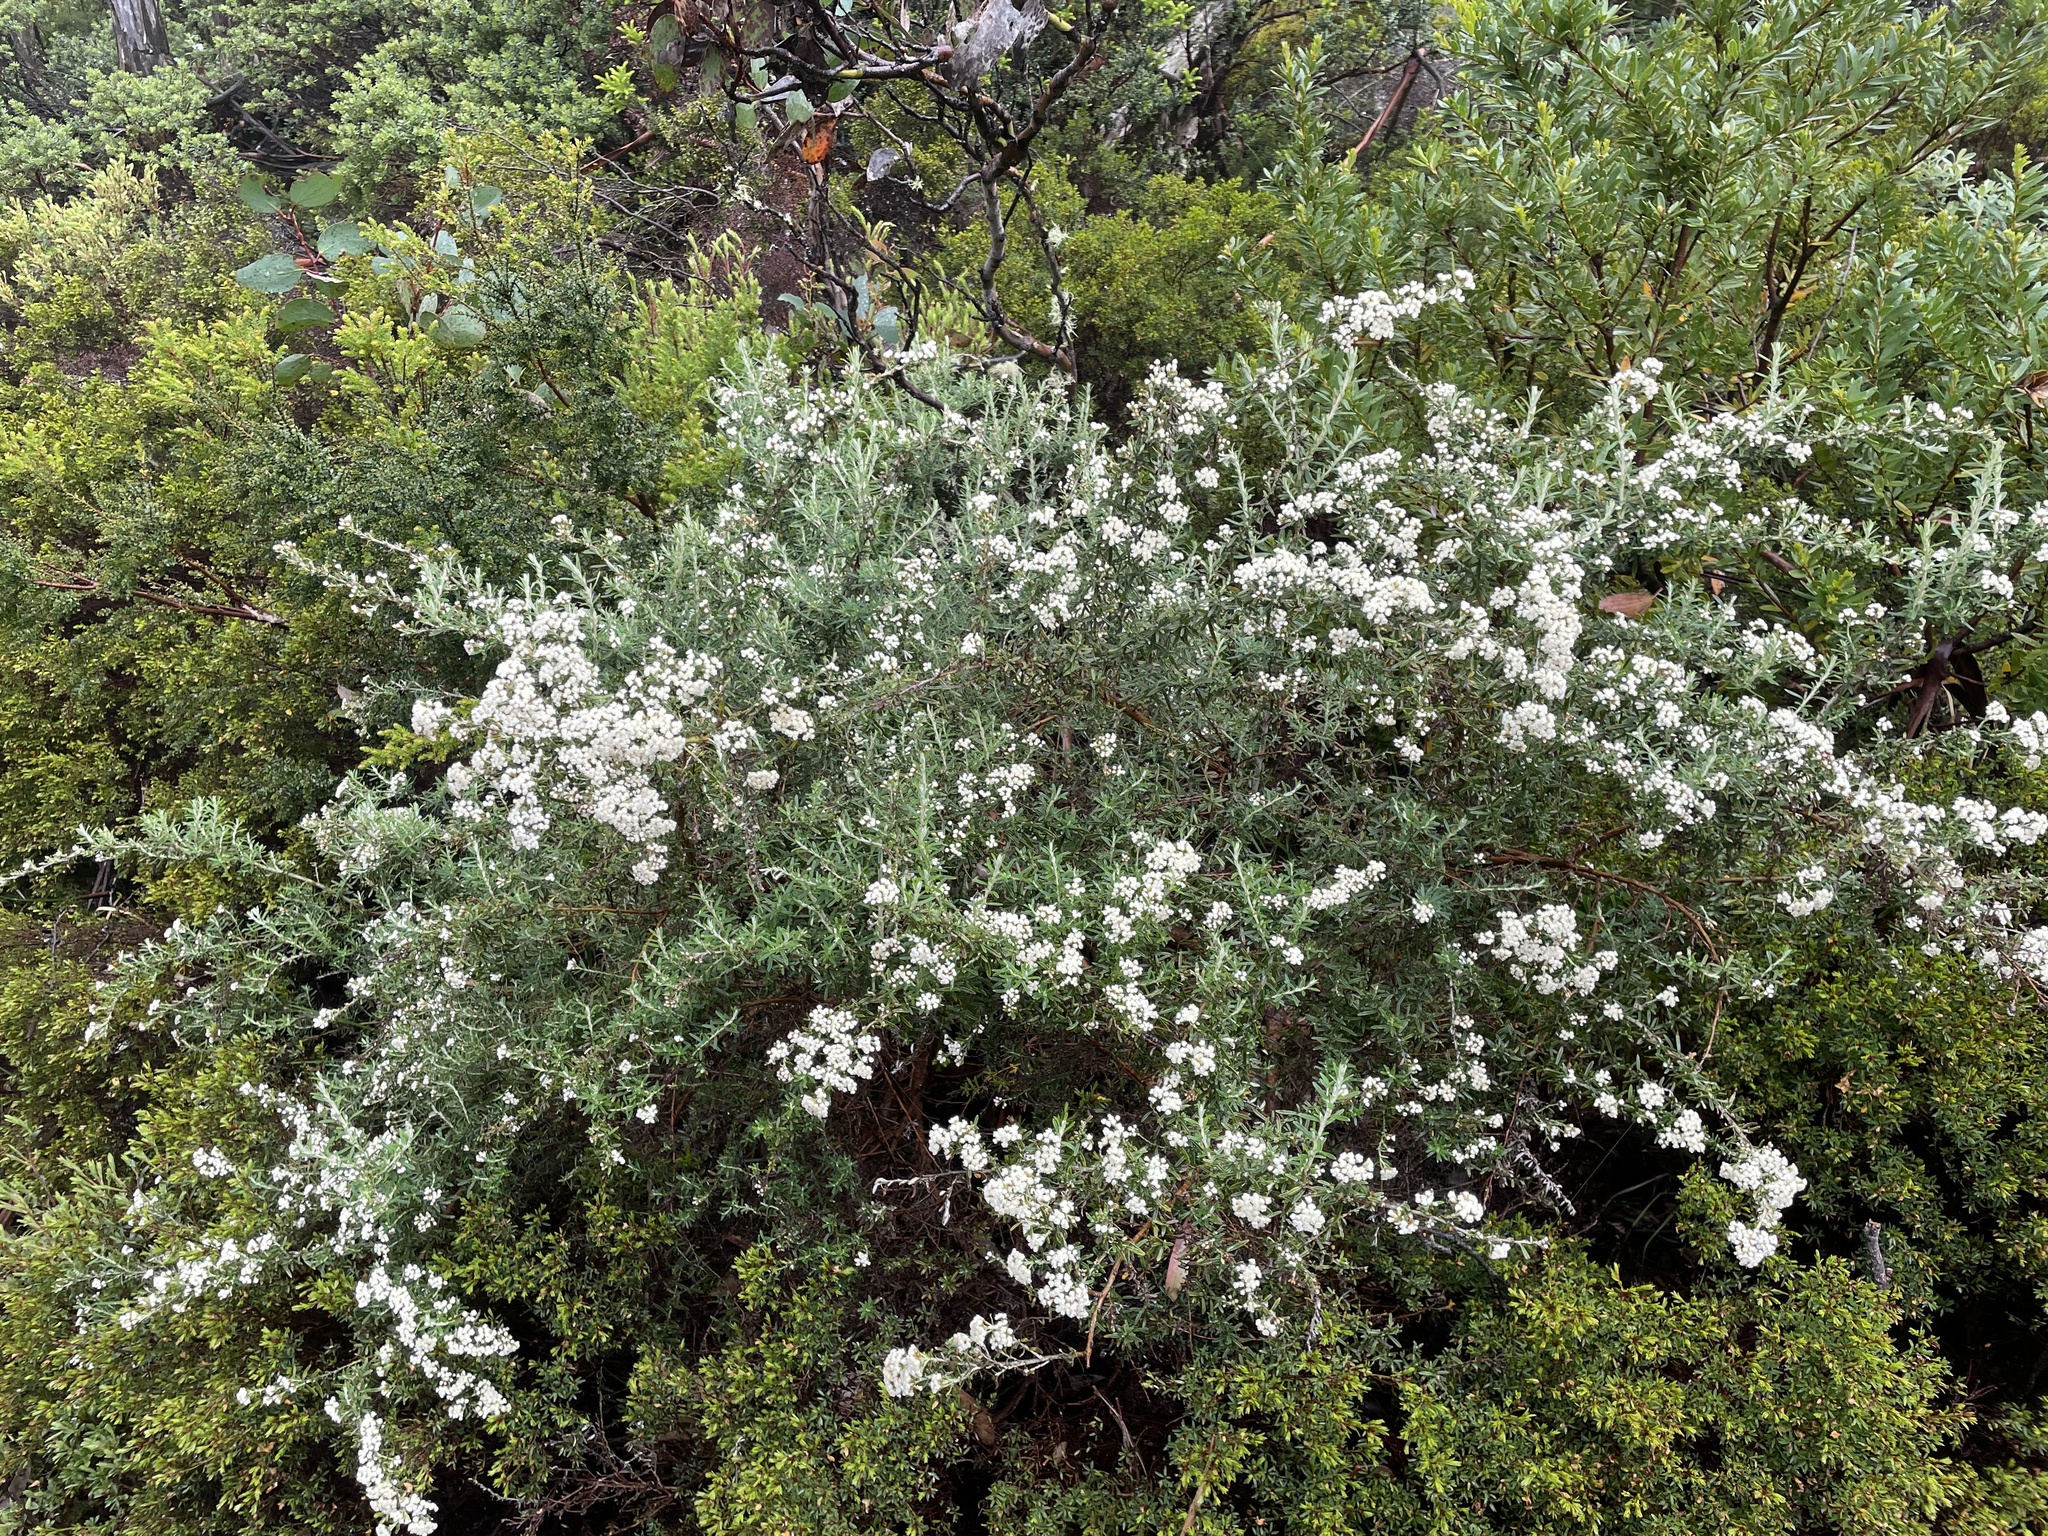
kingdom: Plantae
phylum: Tracheophyta
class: Magnoliopsida
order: Asterales
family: Asteraceae
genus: Ozothamnus
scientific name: Ozothamnus secundiflorus
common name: Cascade everlasting
